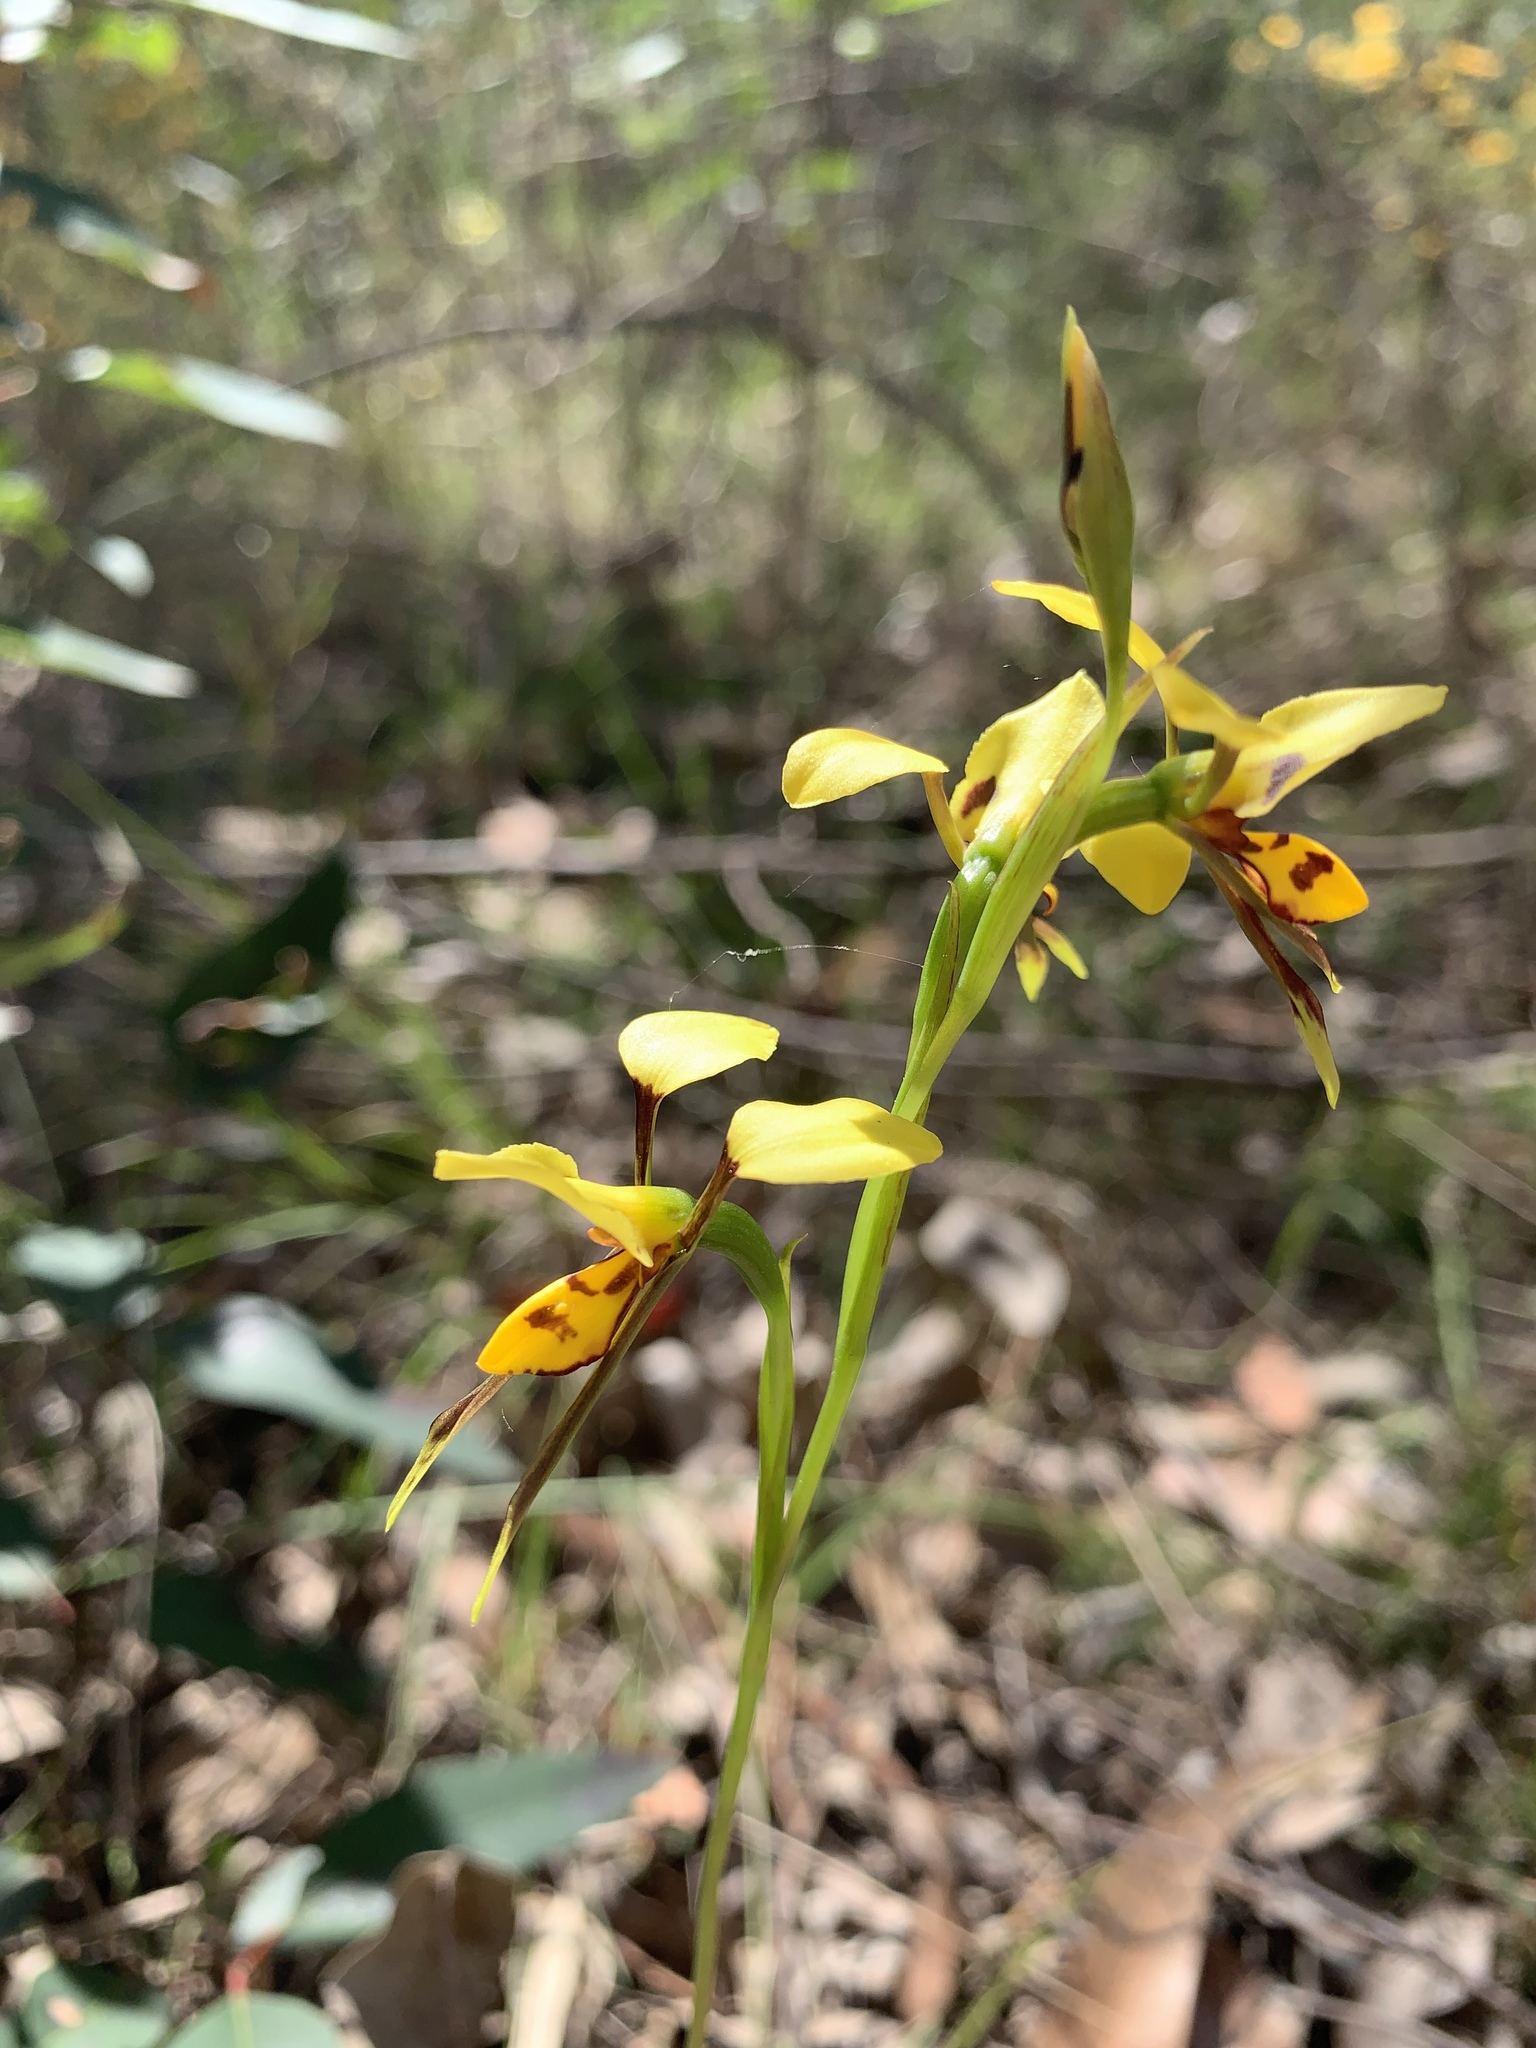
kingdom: Plantae
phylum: Tracheophyta
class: Liliopsida
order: Asparagales
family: Orchidaceae
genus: Diuris
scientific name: Diuris sulphurea
